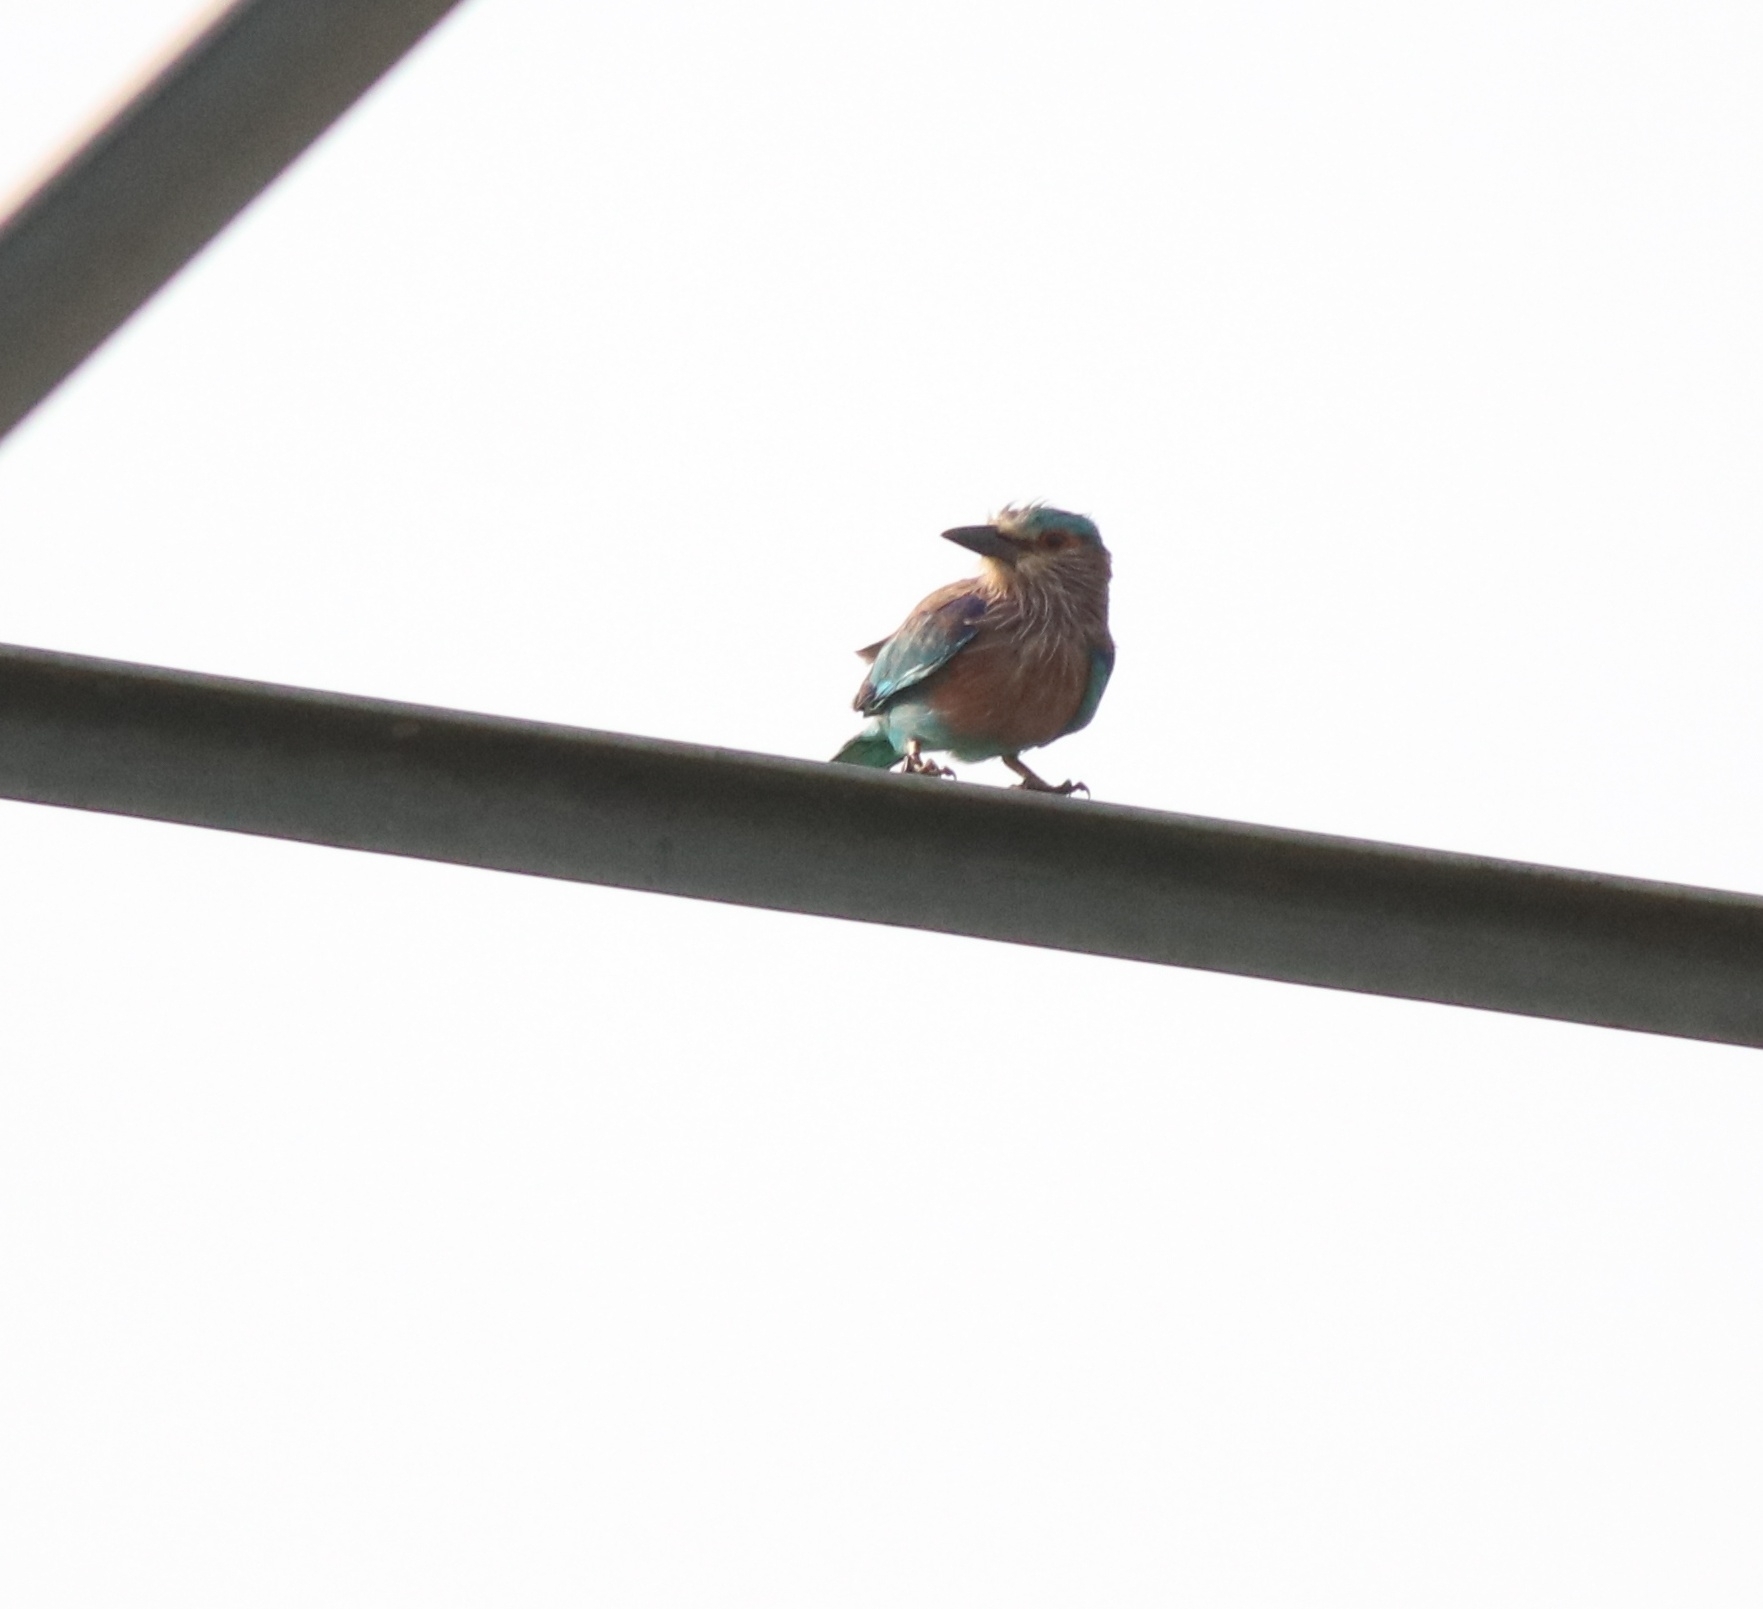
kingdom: Animalia
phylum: Chordata
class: Aves
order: Coraciiformes
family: Coraciidae
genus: Coracias
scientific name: Coracias benghalensis
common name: Indian roller
